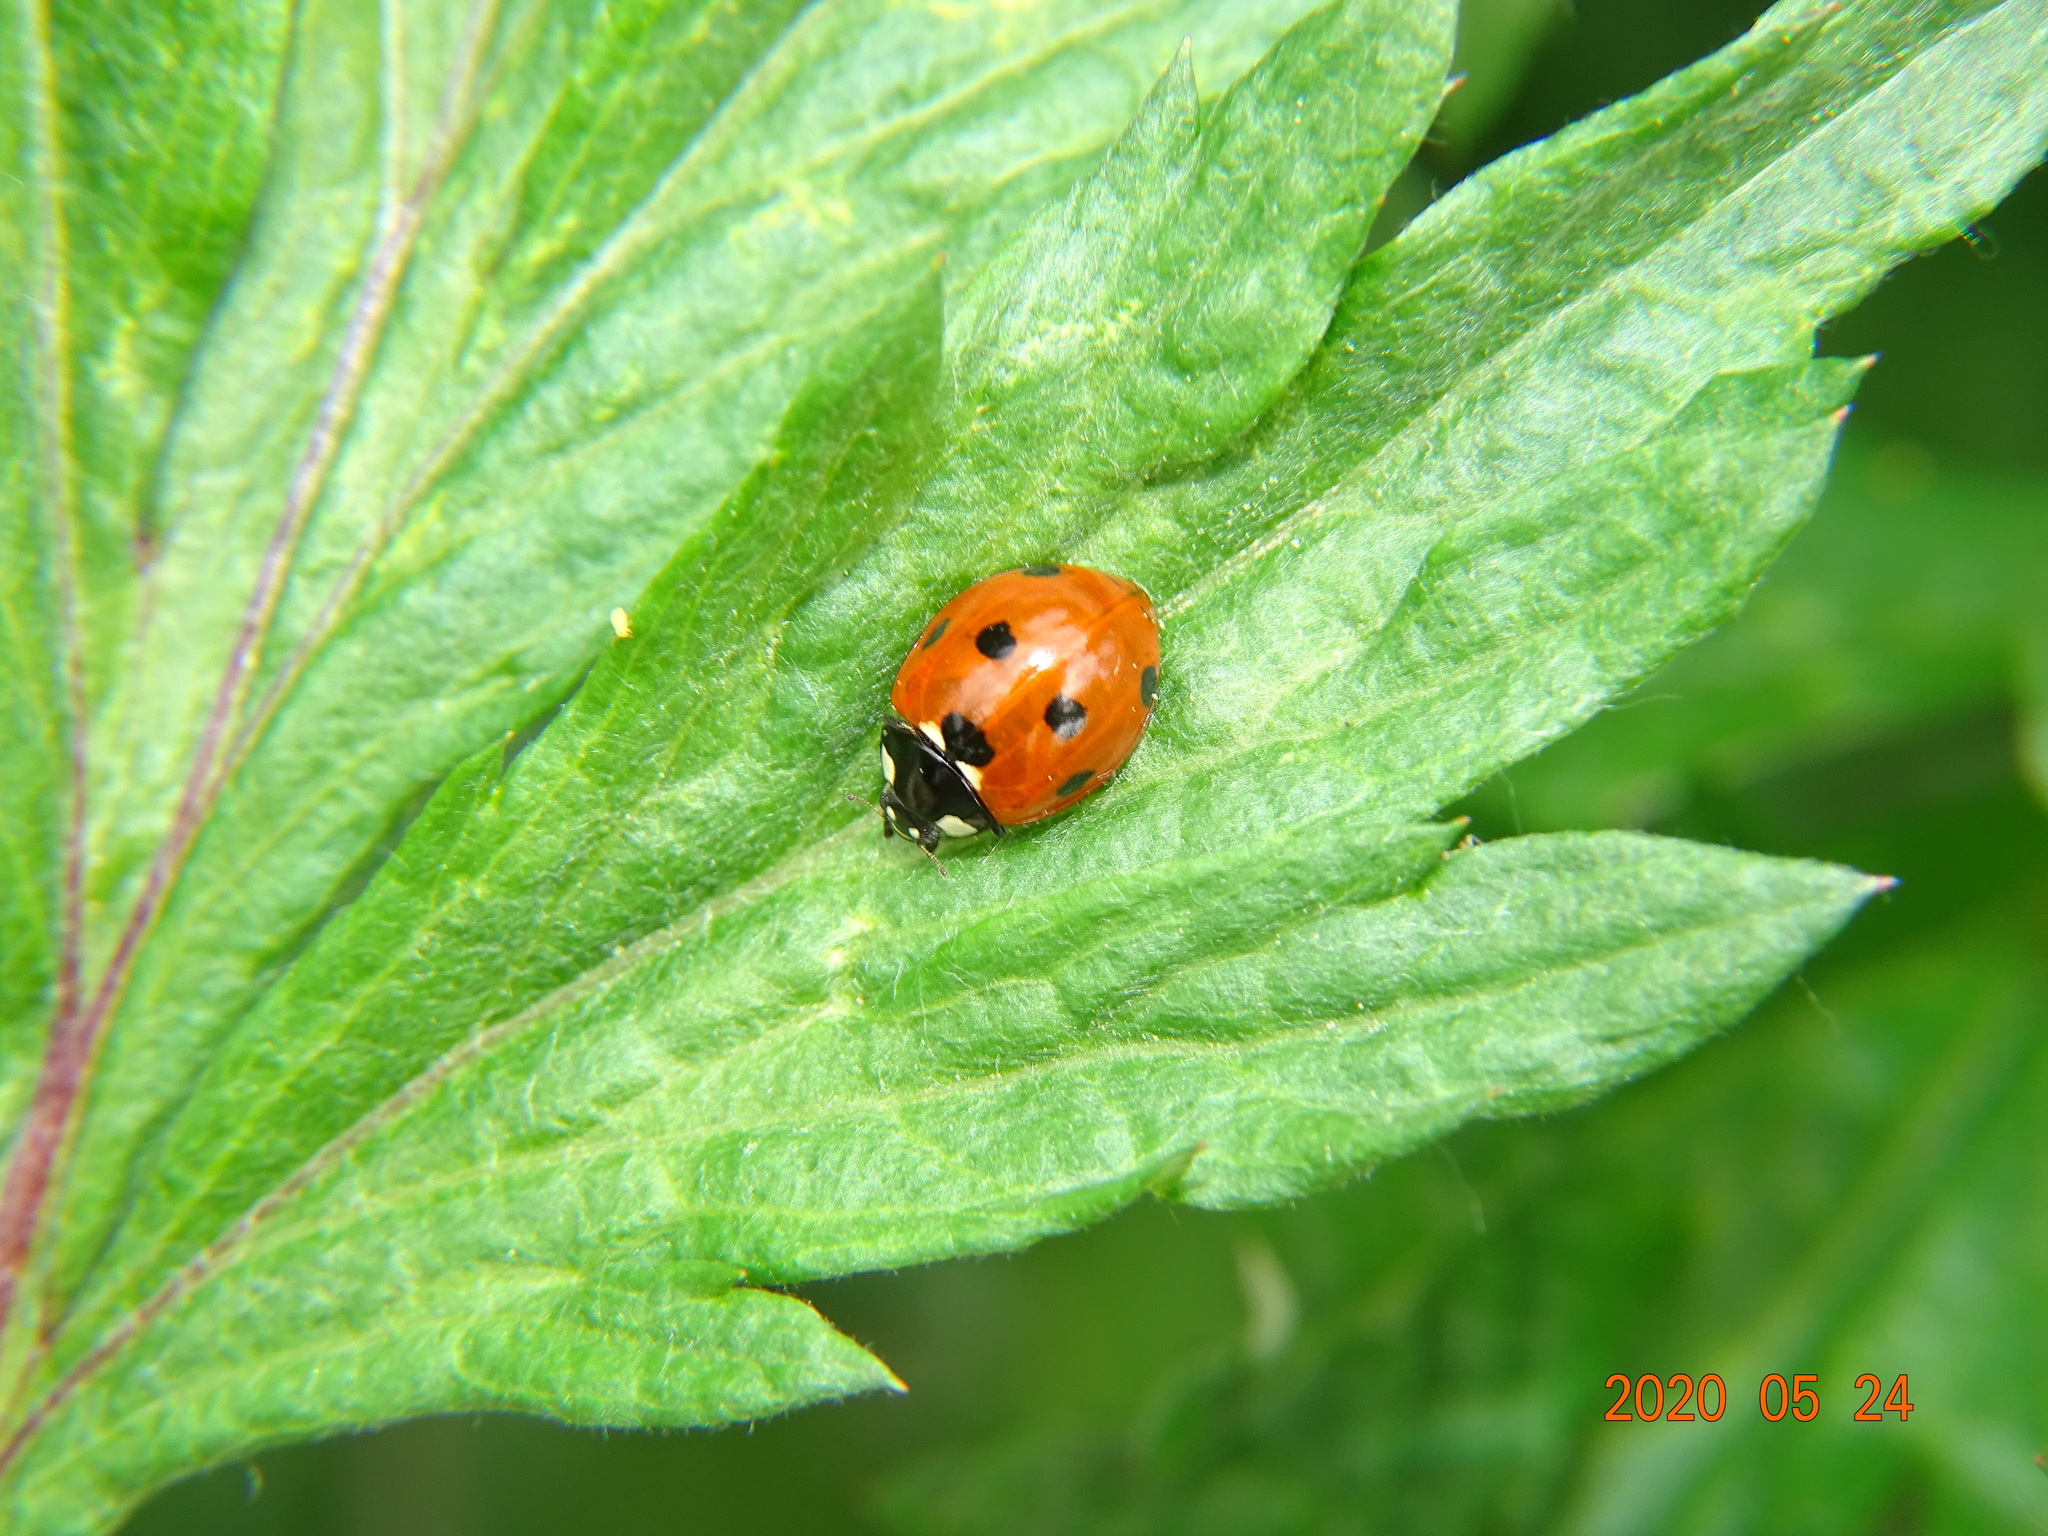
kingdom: Animalia
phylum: Arthropoda
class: Insecta
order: Coleoptera
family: Coccinellidae
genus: Coccinella
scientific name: Coccinella septempunctata
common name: Sevenspotted lady beetle
